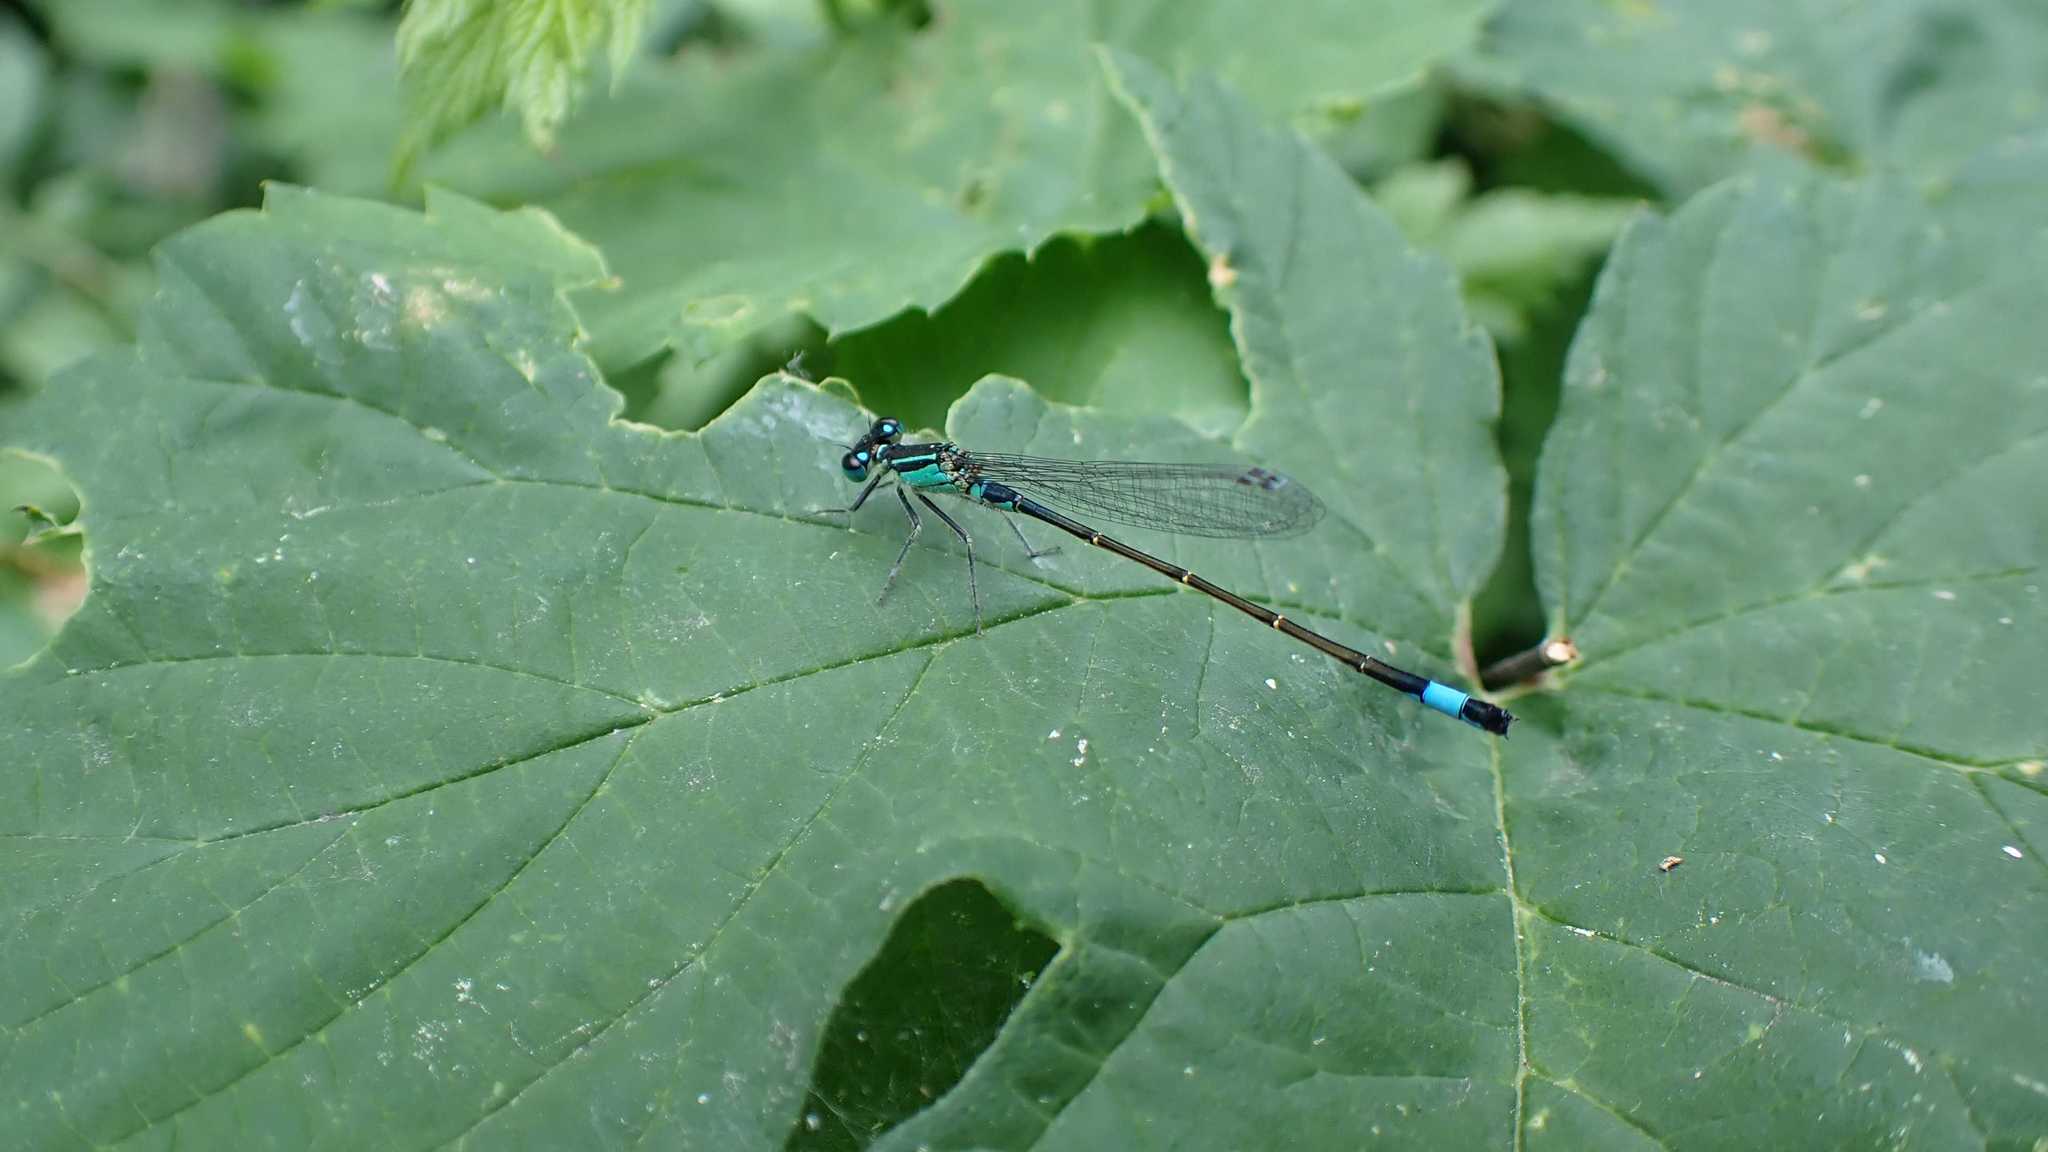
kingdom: Animalia
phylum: Arthropoda
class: Insecta
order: Odonata
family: Coenagrionidae
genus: Ischnura
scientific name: Ischnura elegans
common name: Blue-tailed damselfly
